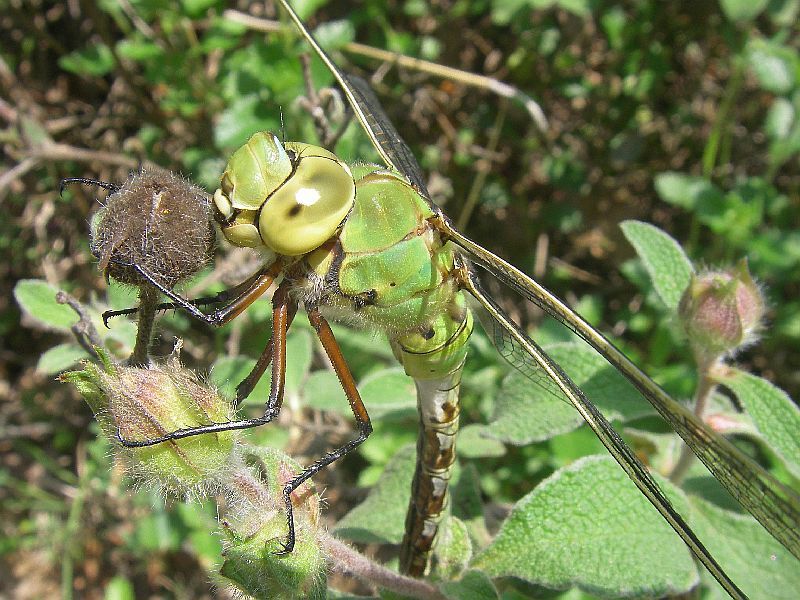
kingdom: Animalia
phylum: Arthropoda
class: Insecta
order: Odonata
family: Aeshnidae
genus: Anax
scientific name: Anax imperator
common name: Emperor dragonfly
